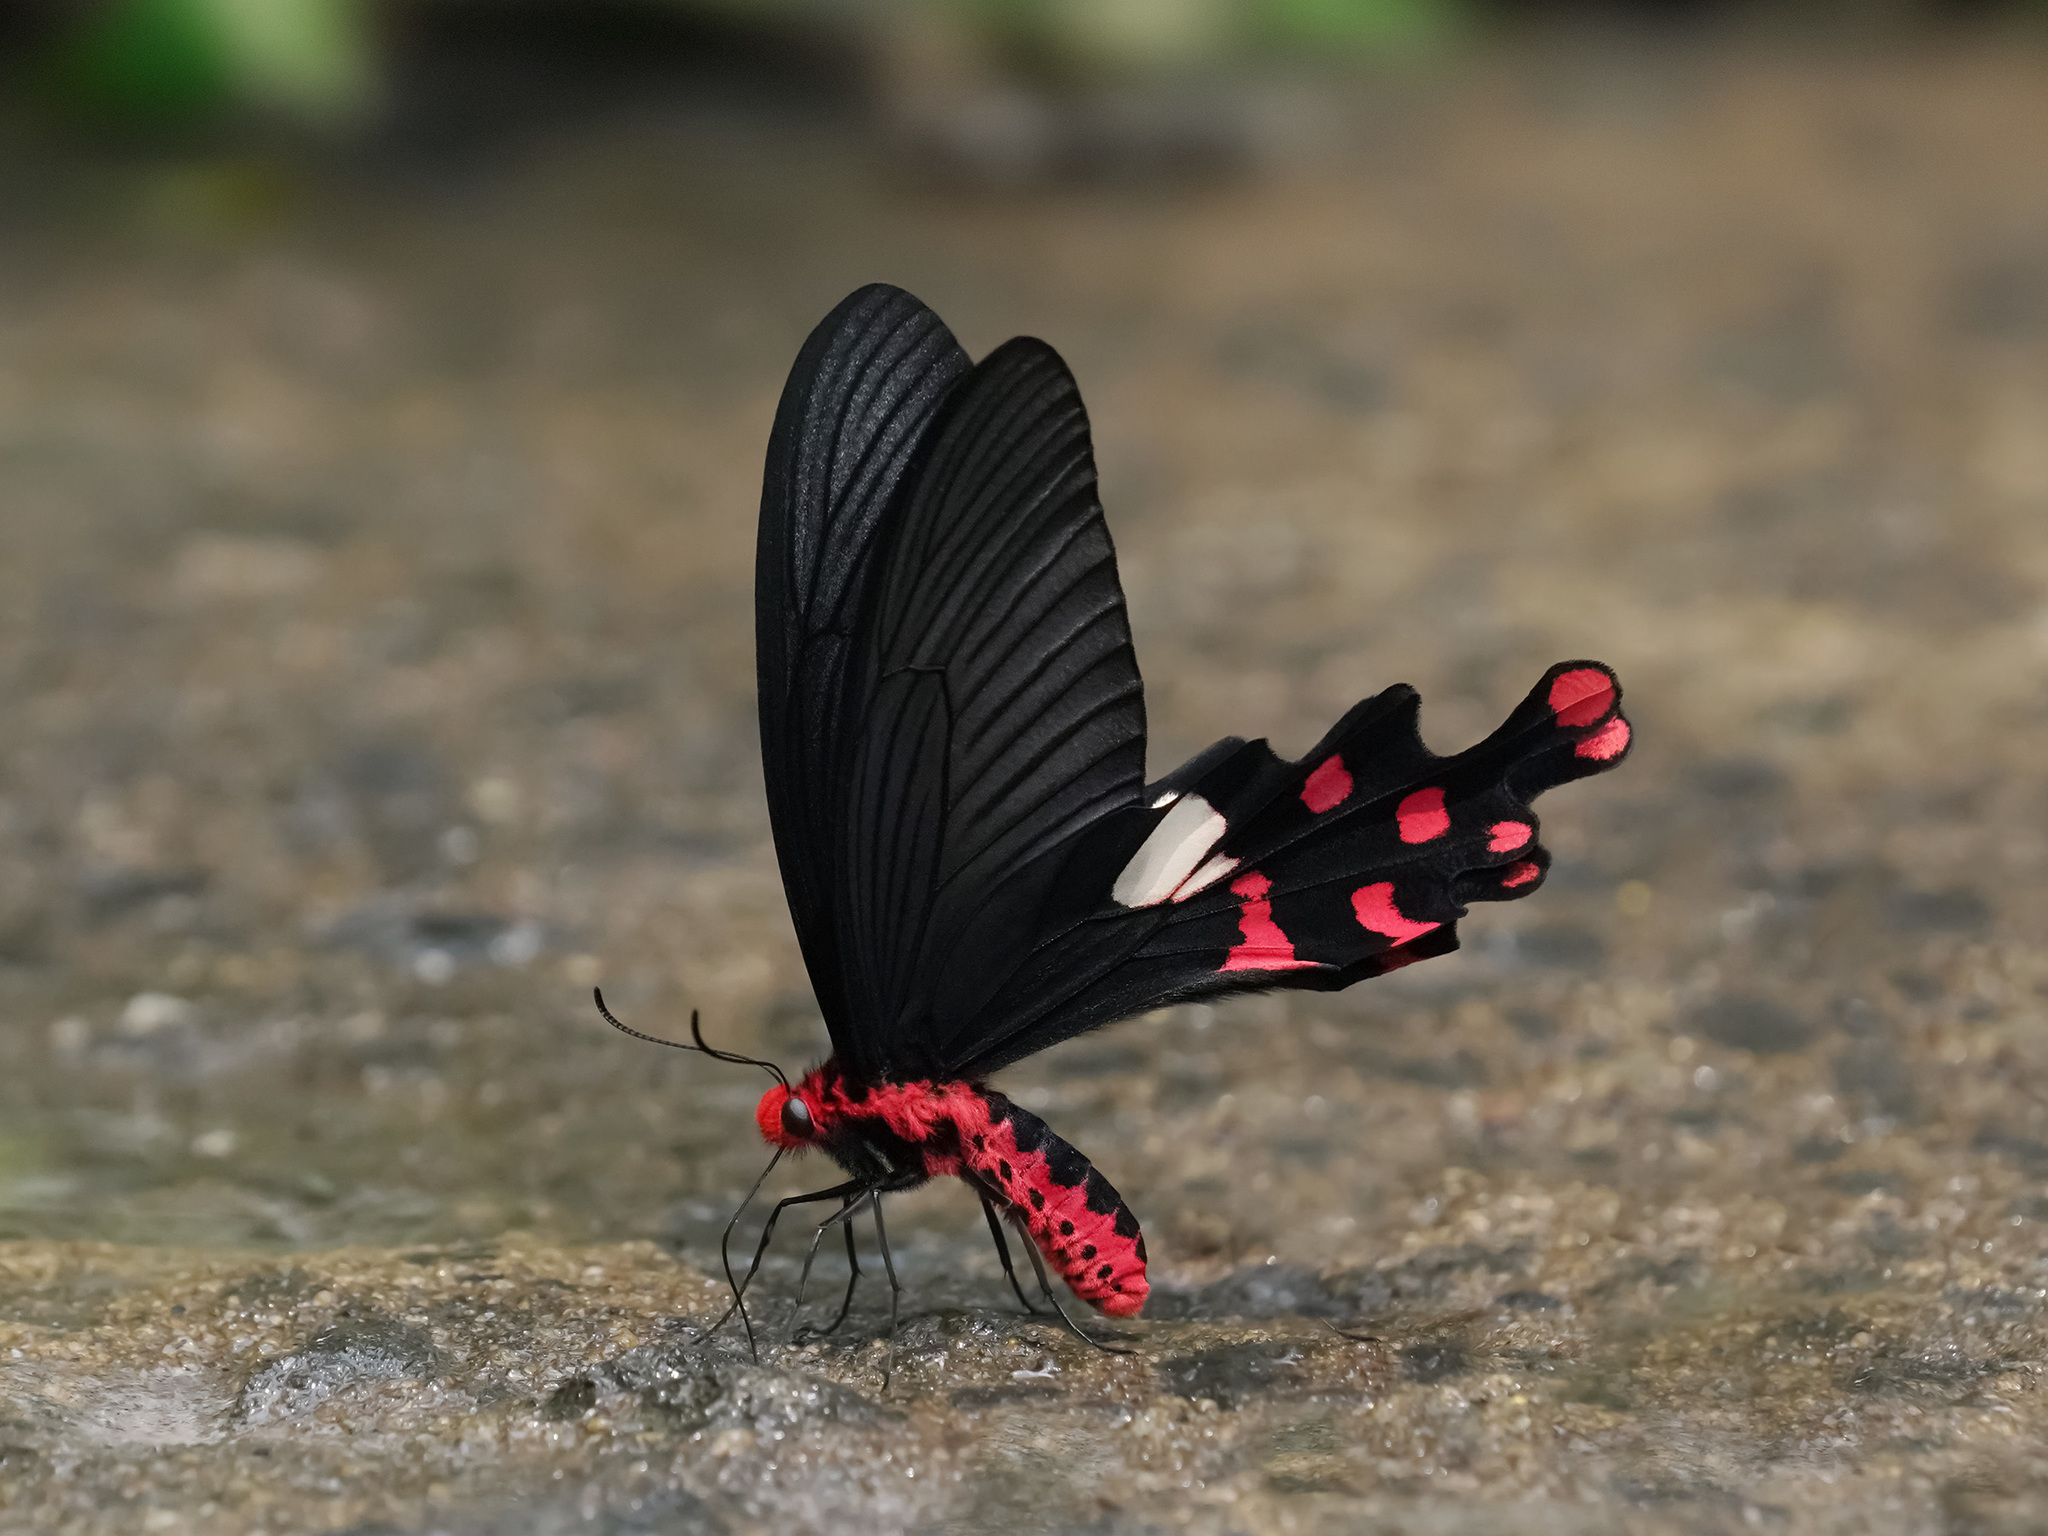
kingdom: Animalia
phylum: Arthropoda
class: Insecta
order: Lepidoptera
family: Papilionidae
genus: Byasa
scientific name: Byasa polyeuctes
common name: Common windmill
